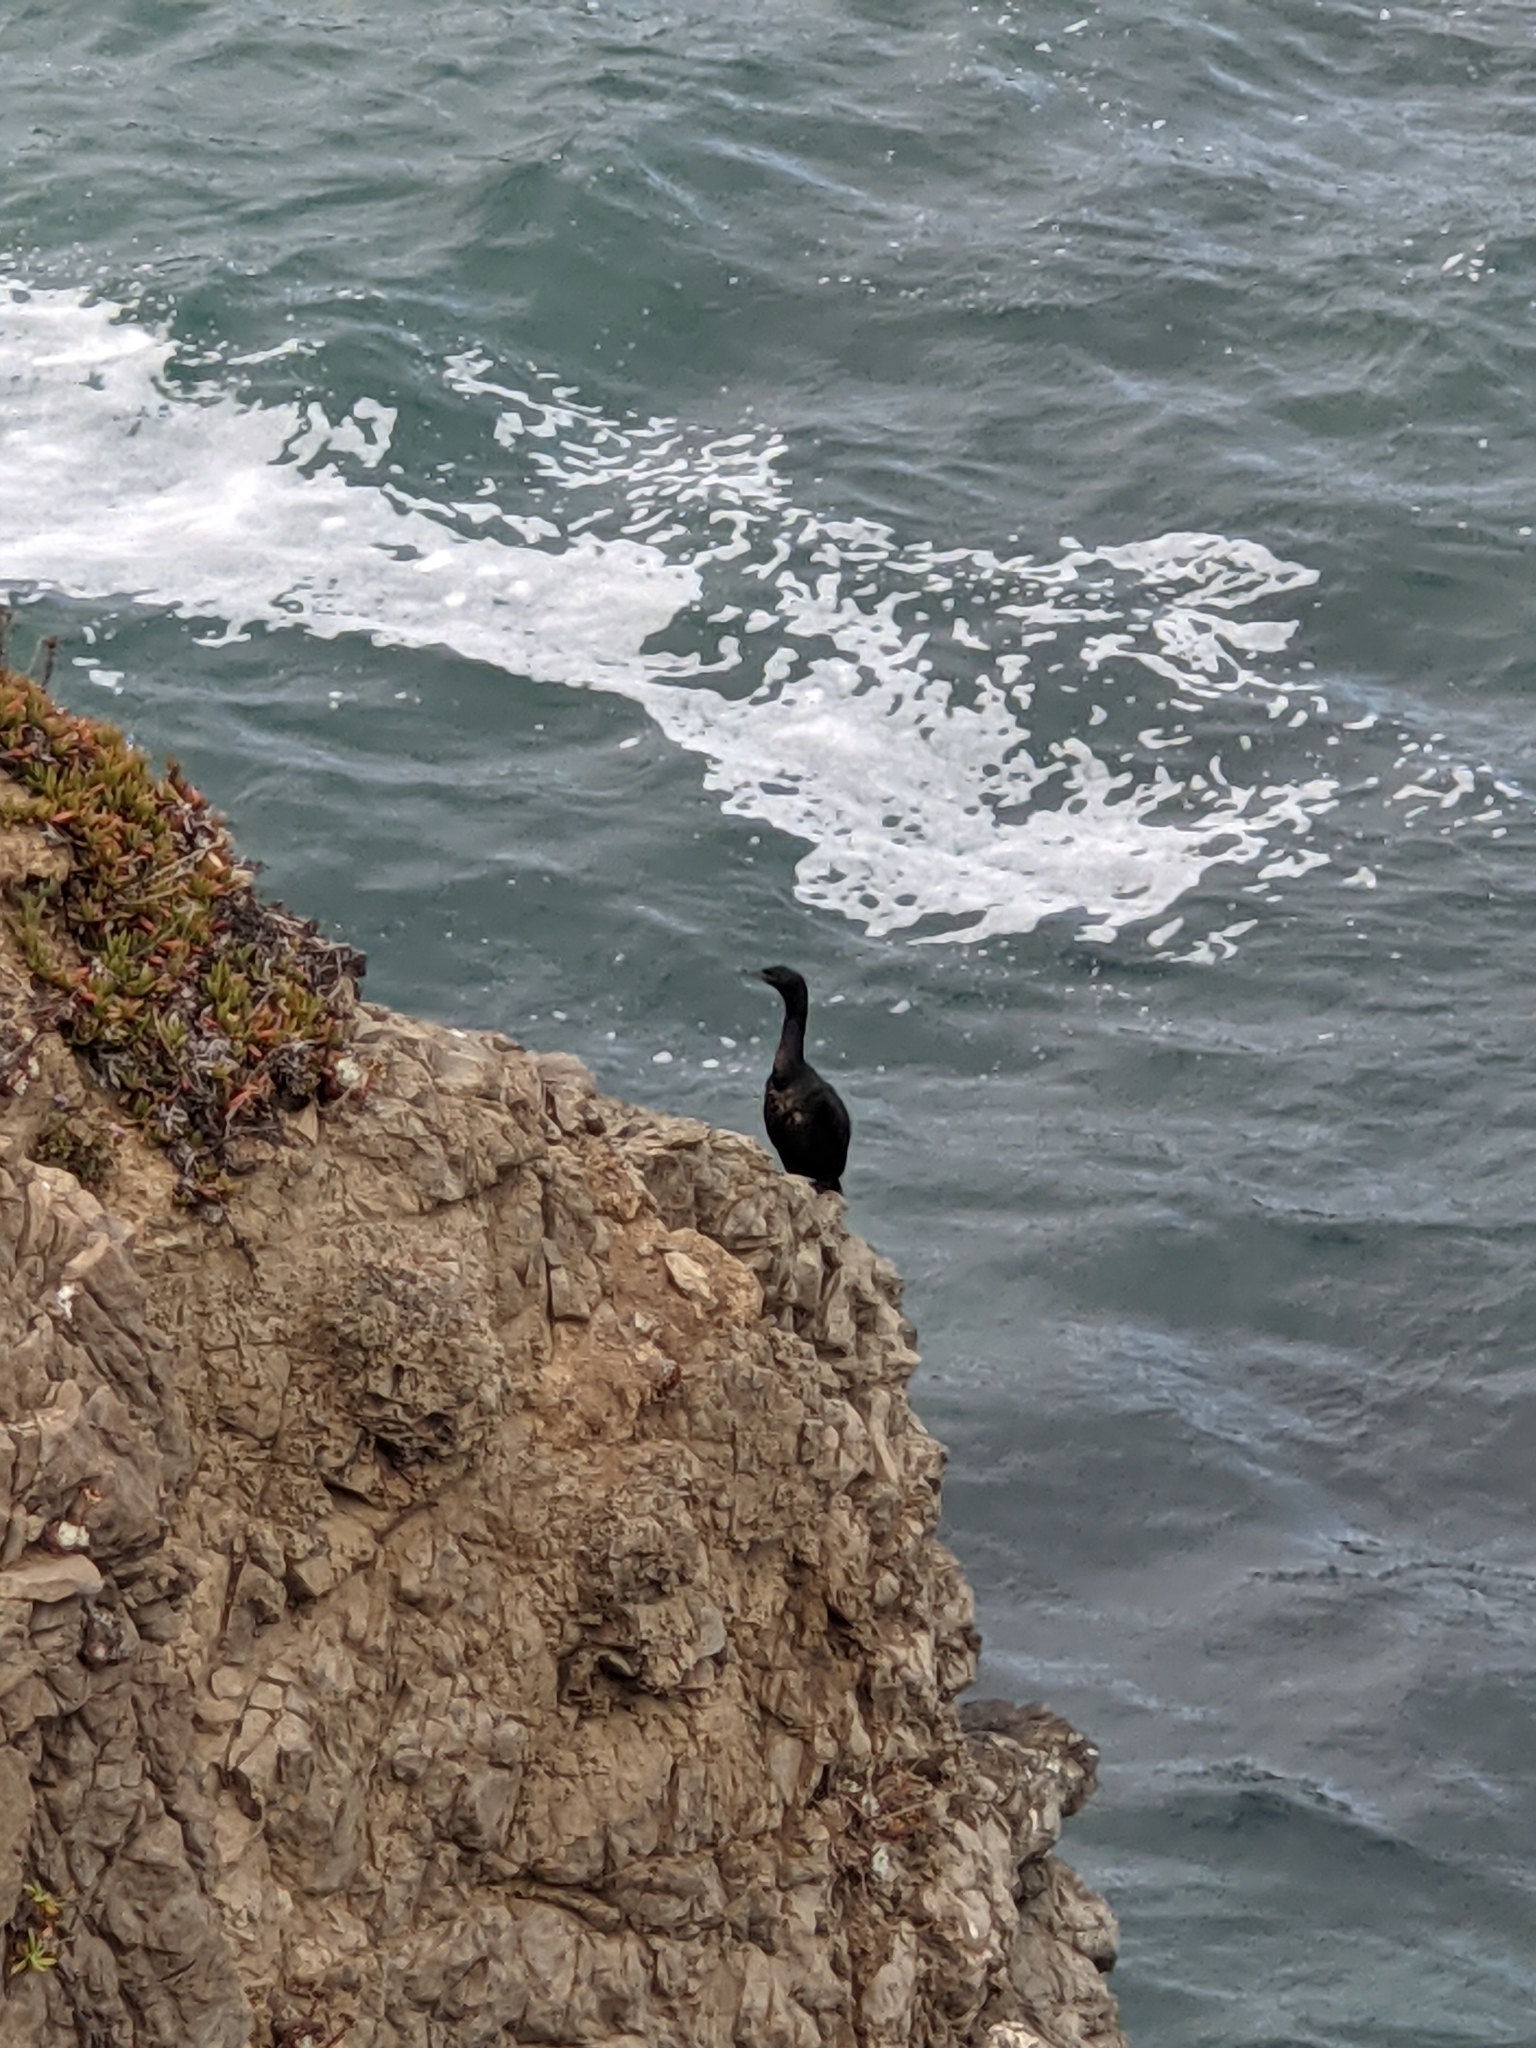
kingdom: Animalia
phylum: Chordata
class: Aves
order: Suliformes
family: Phalacrocoracidae
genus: Phalacrocorax
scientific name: Phalacrocorax pelagicus
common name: Pelagic cormorant
